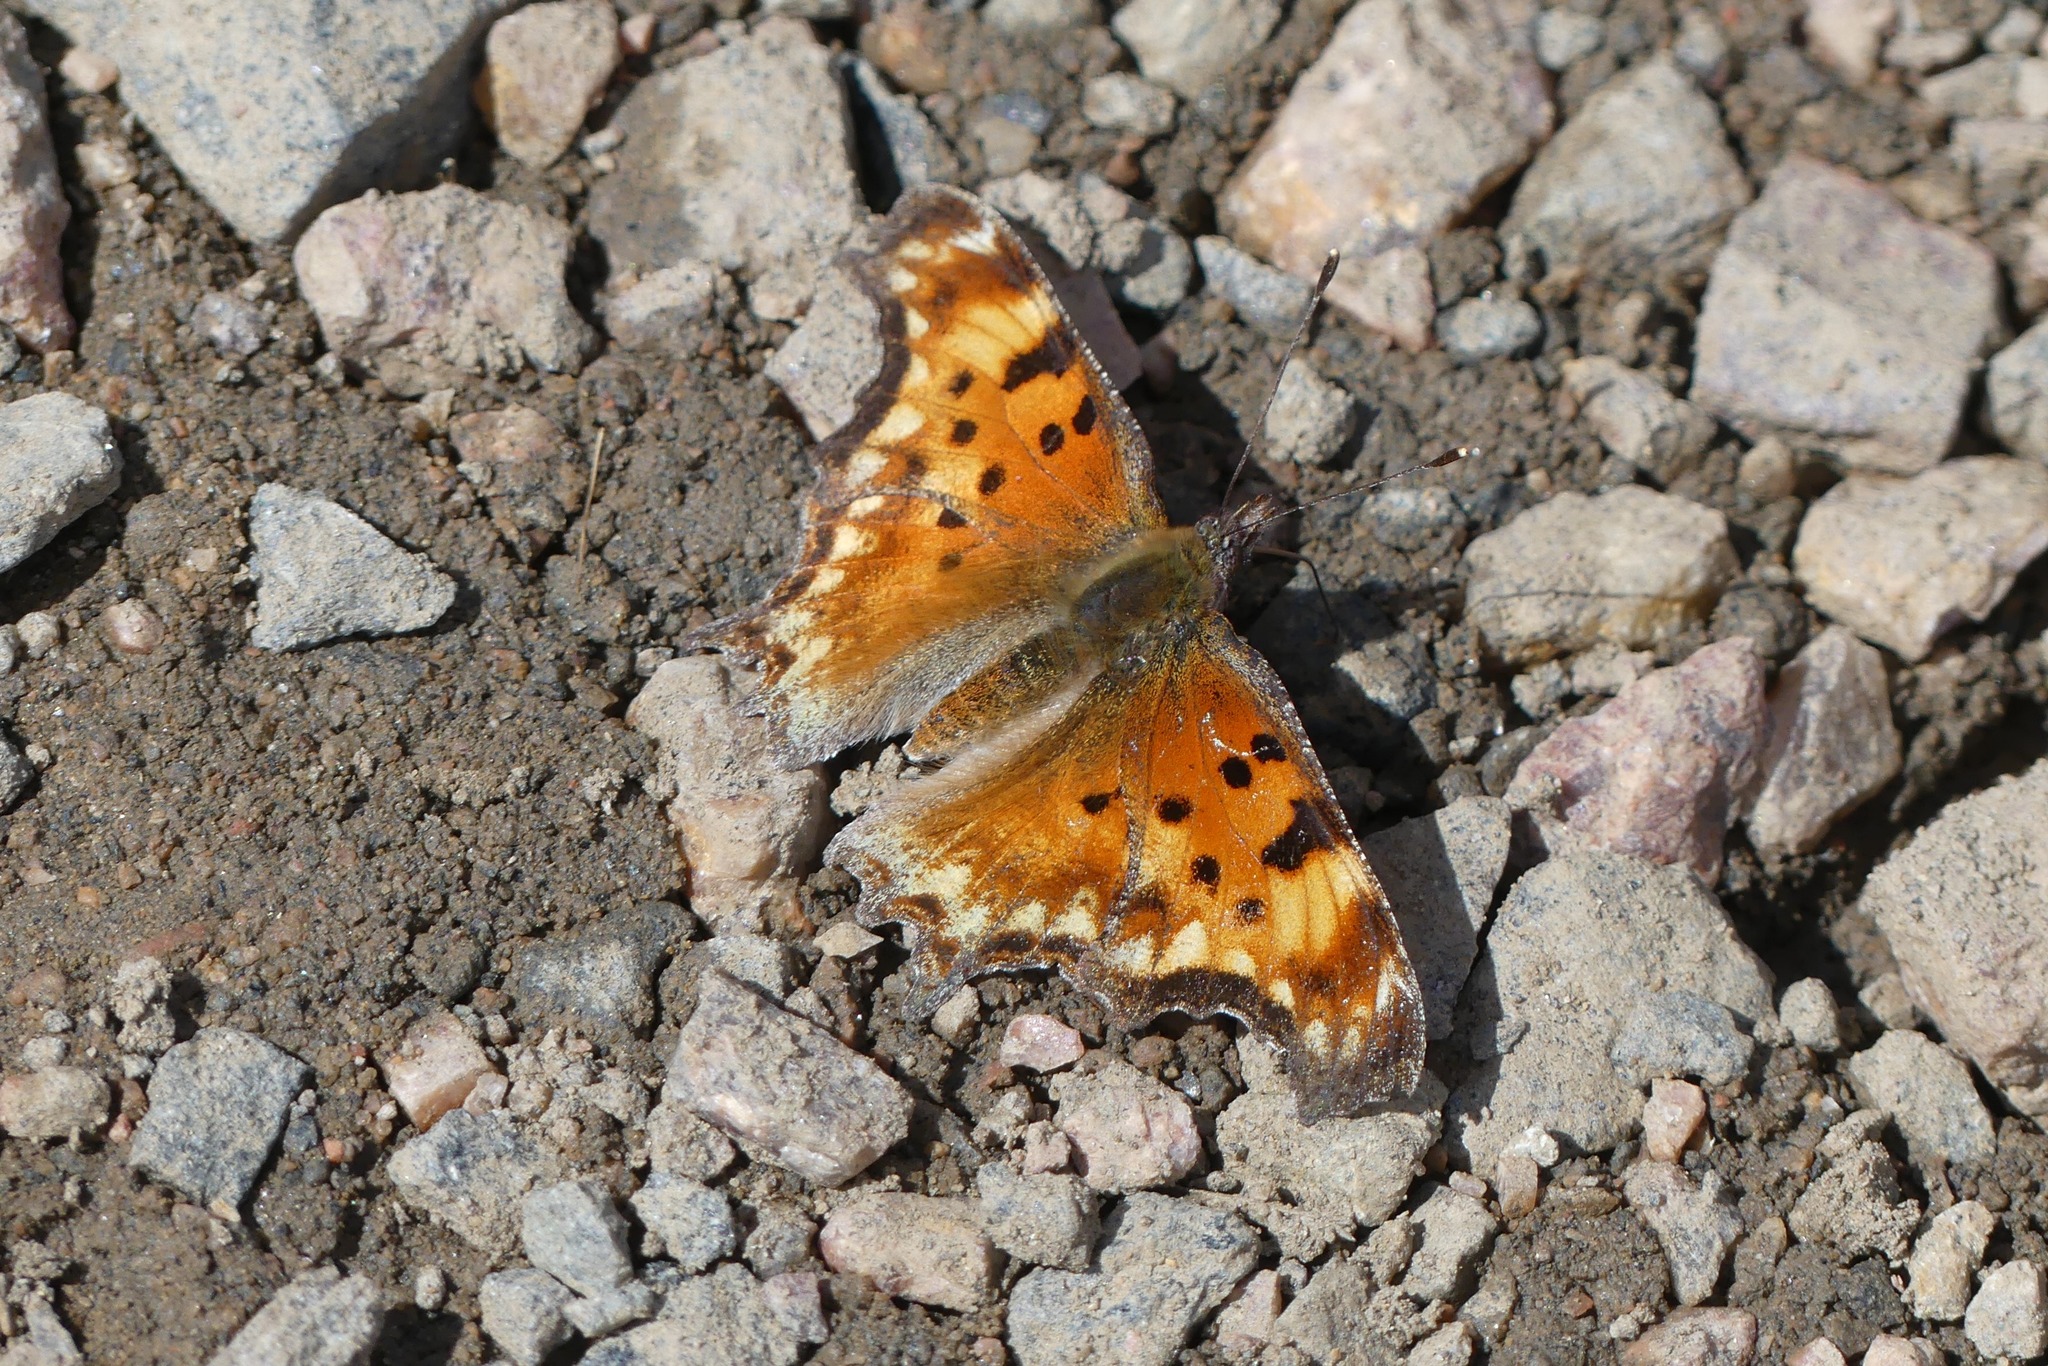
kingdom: Animalia
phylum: Arthropoda
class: Insecta
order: Lepidoptera
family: Nymphalidae
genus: Polygonia
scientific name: Polygonia gracilis
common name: Hoary comma
